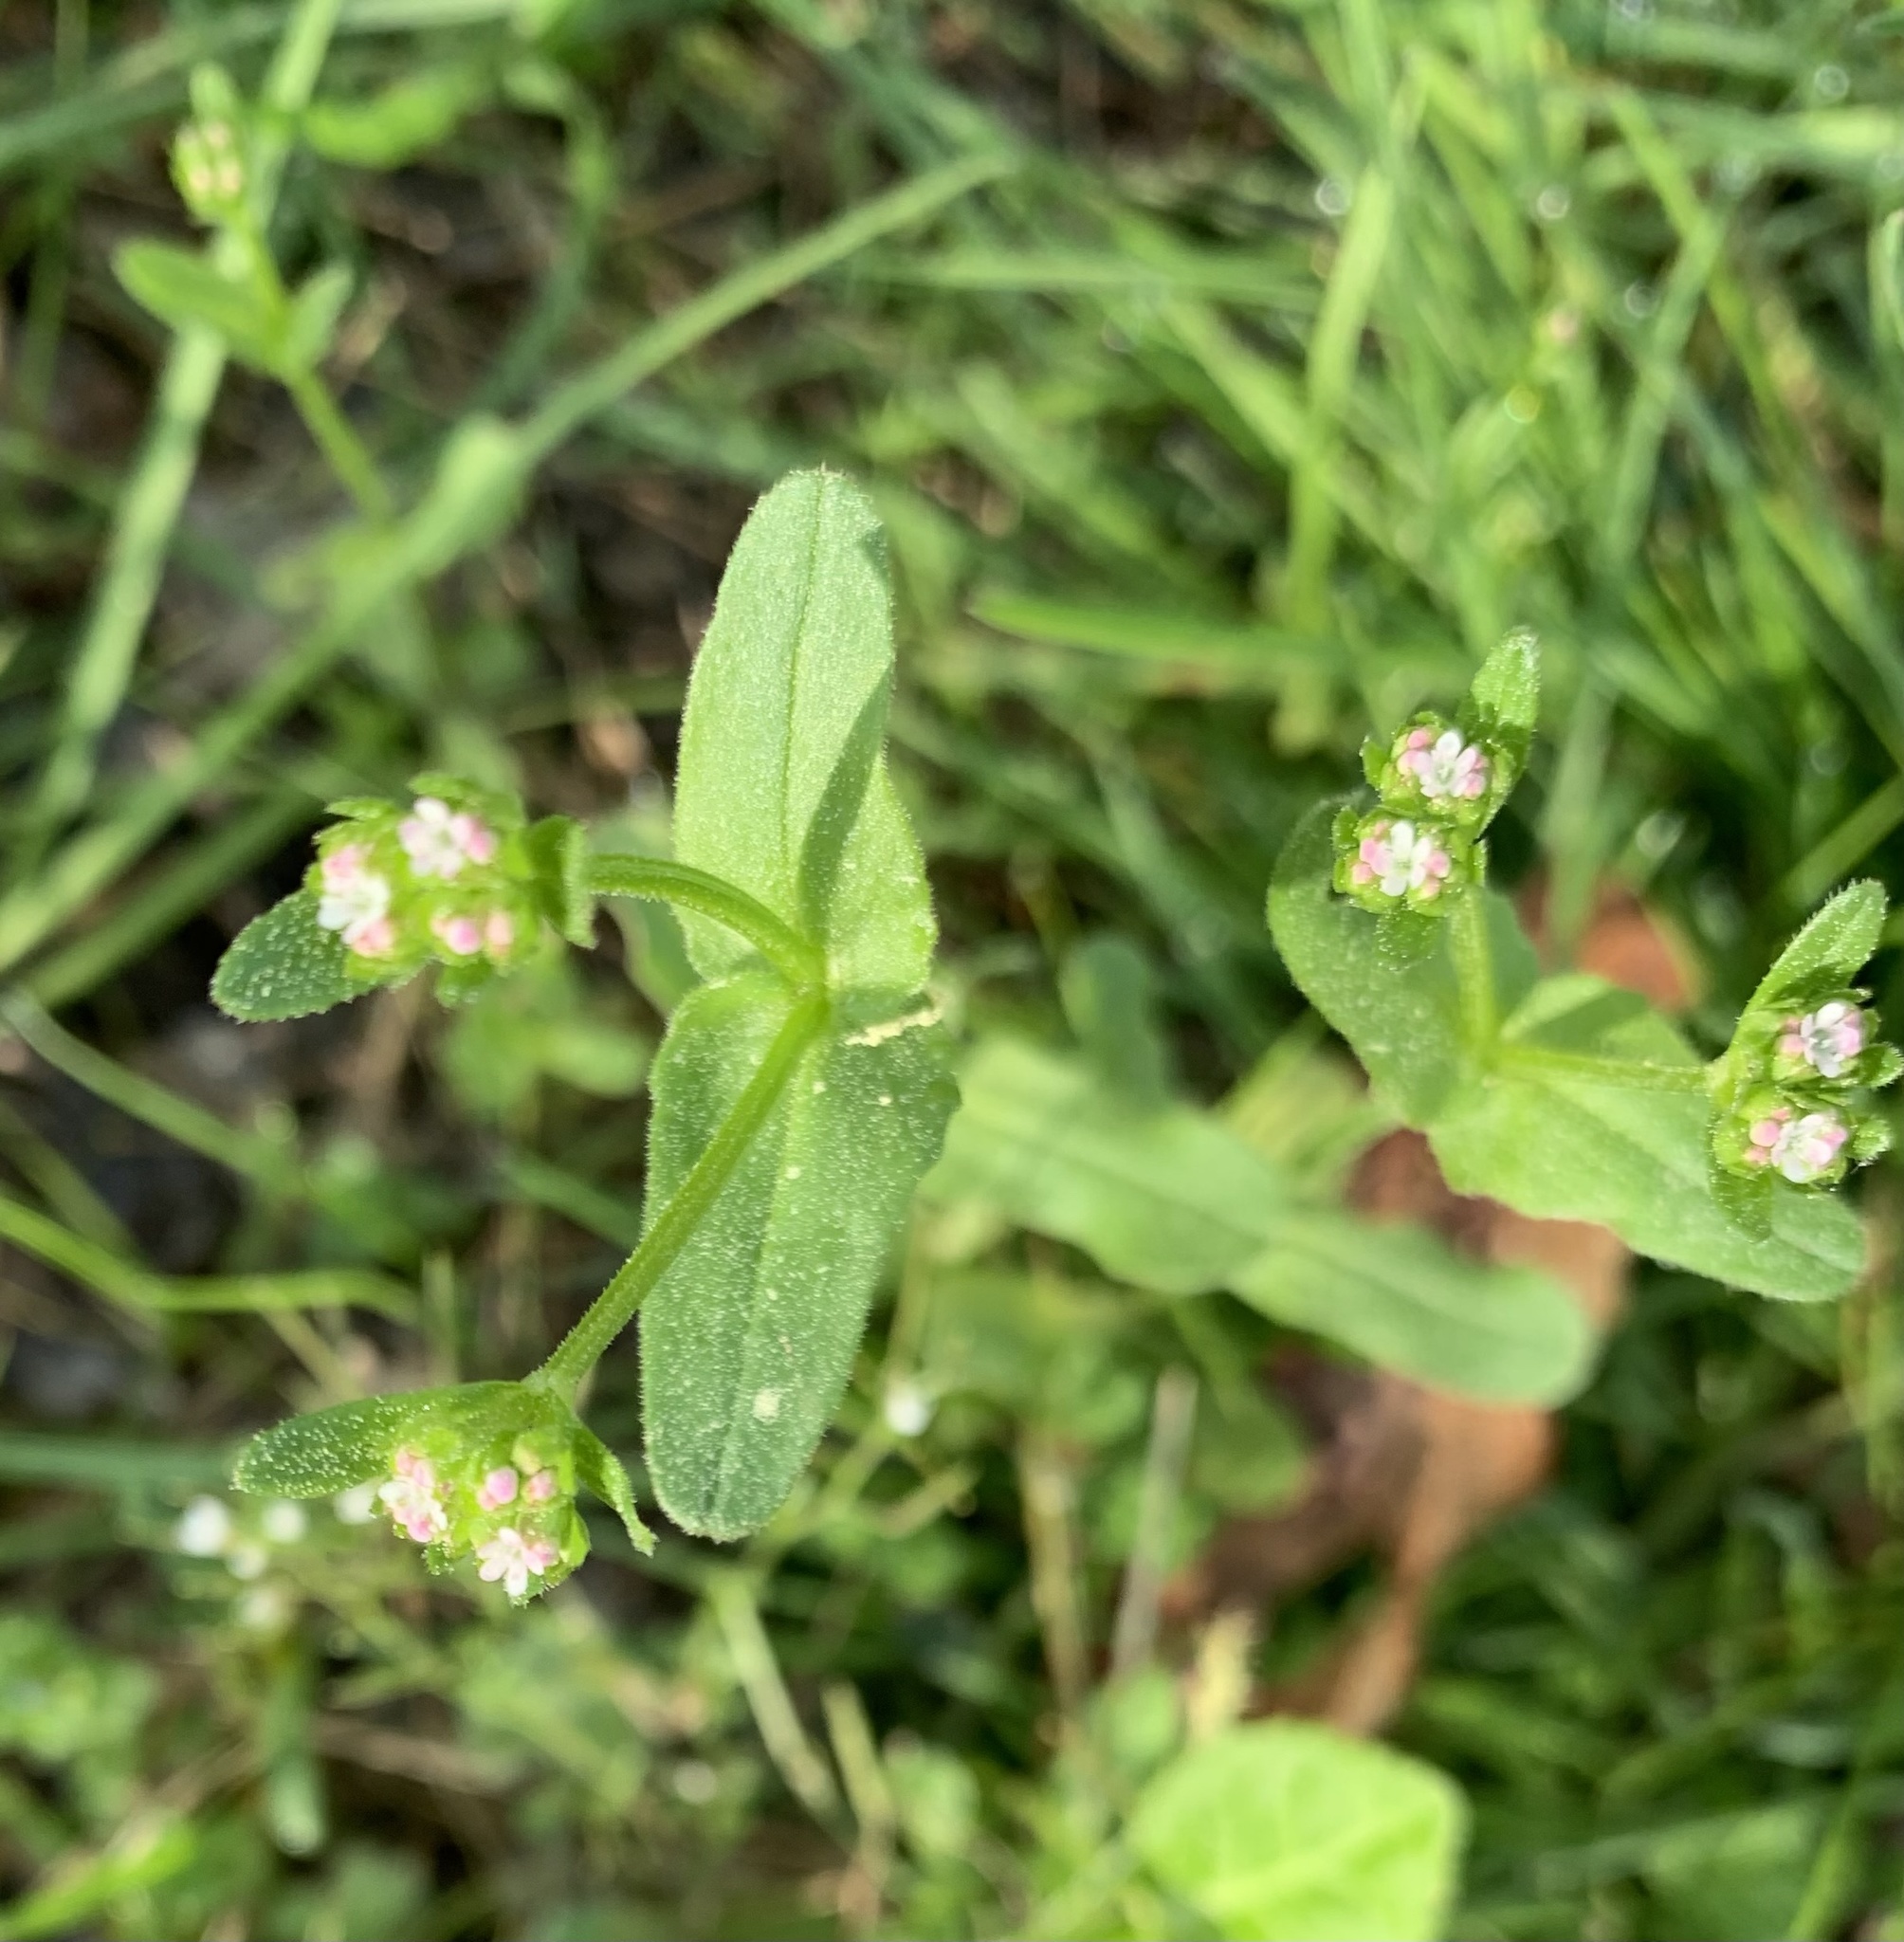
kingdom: Plantae
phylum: Tracheophyta
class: Magnoliopsida
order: Dipsacales
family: Caprifoliaceae
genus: Valerianella
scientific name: Valerianella radiata
